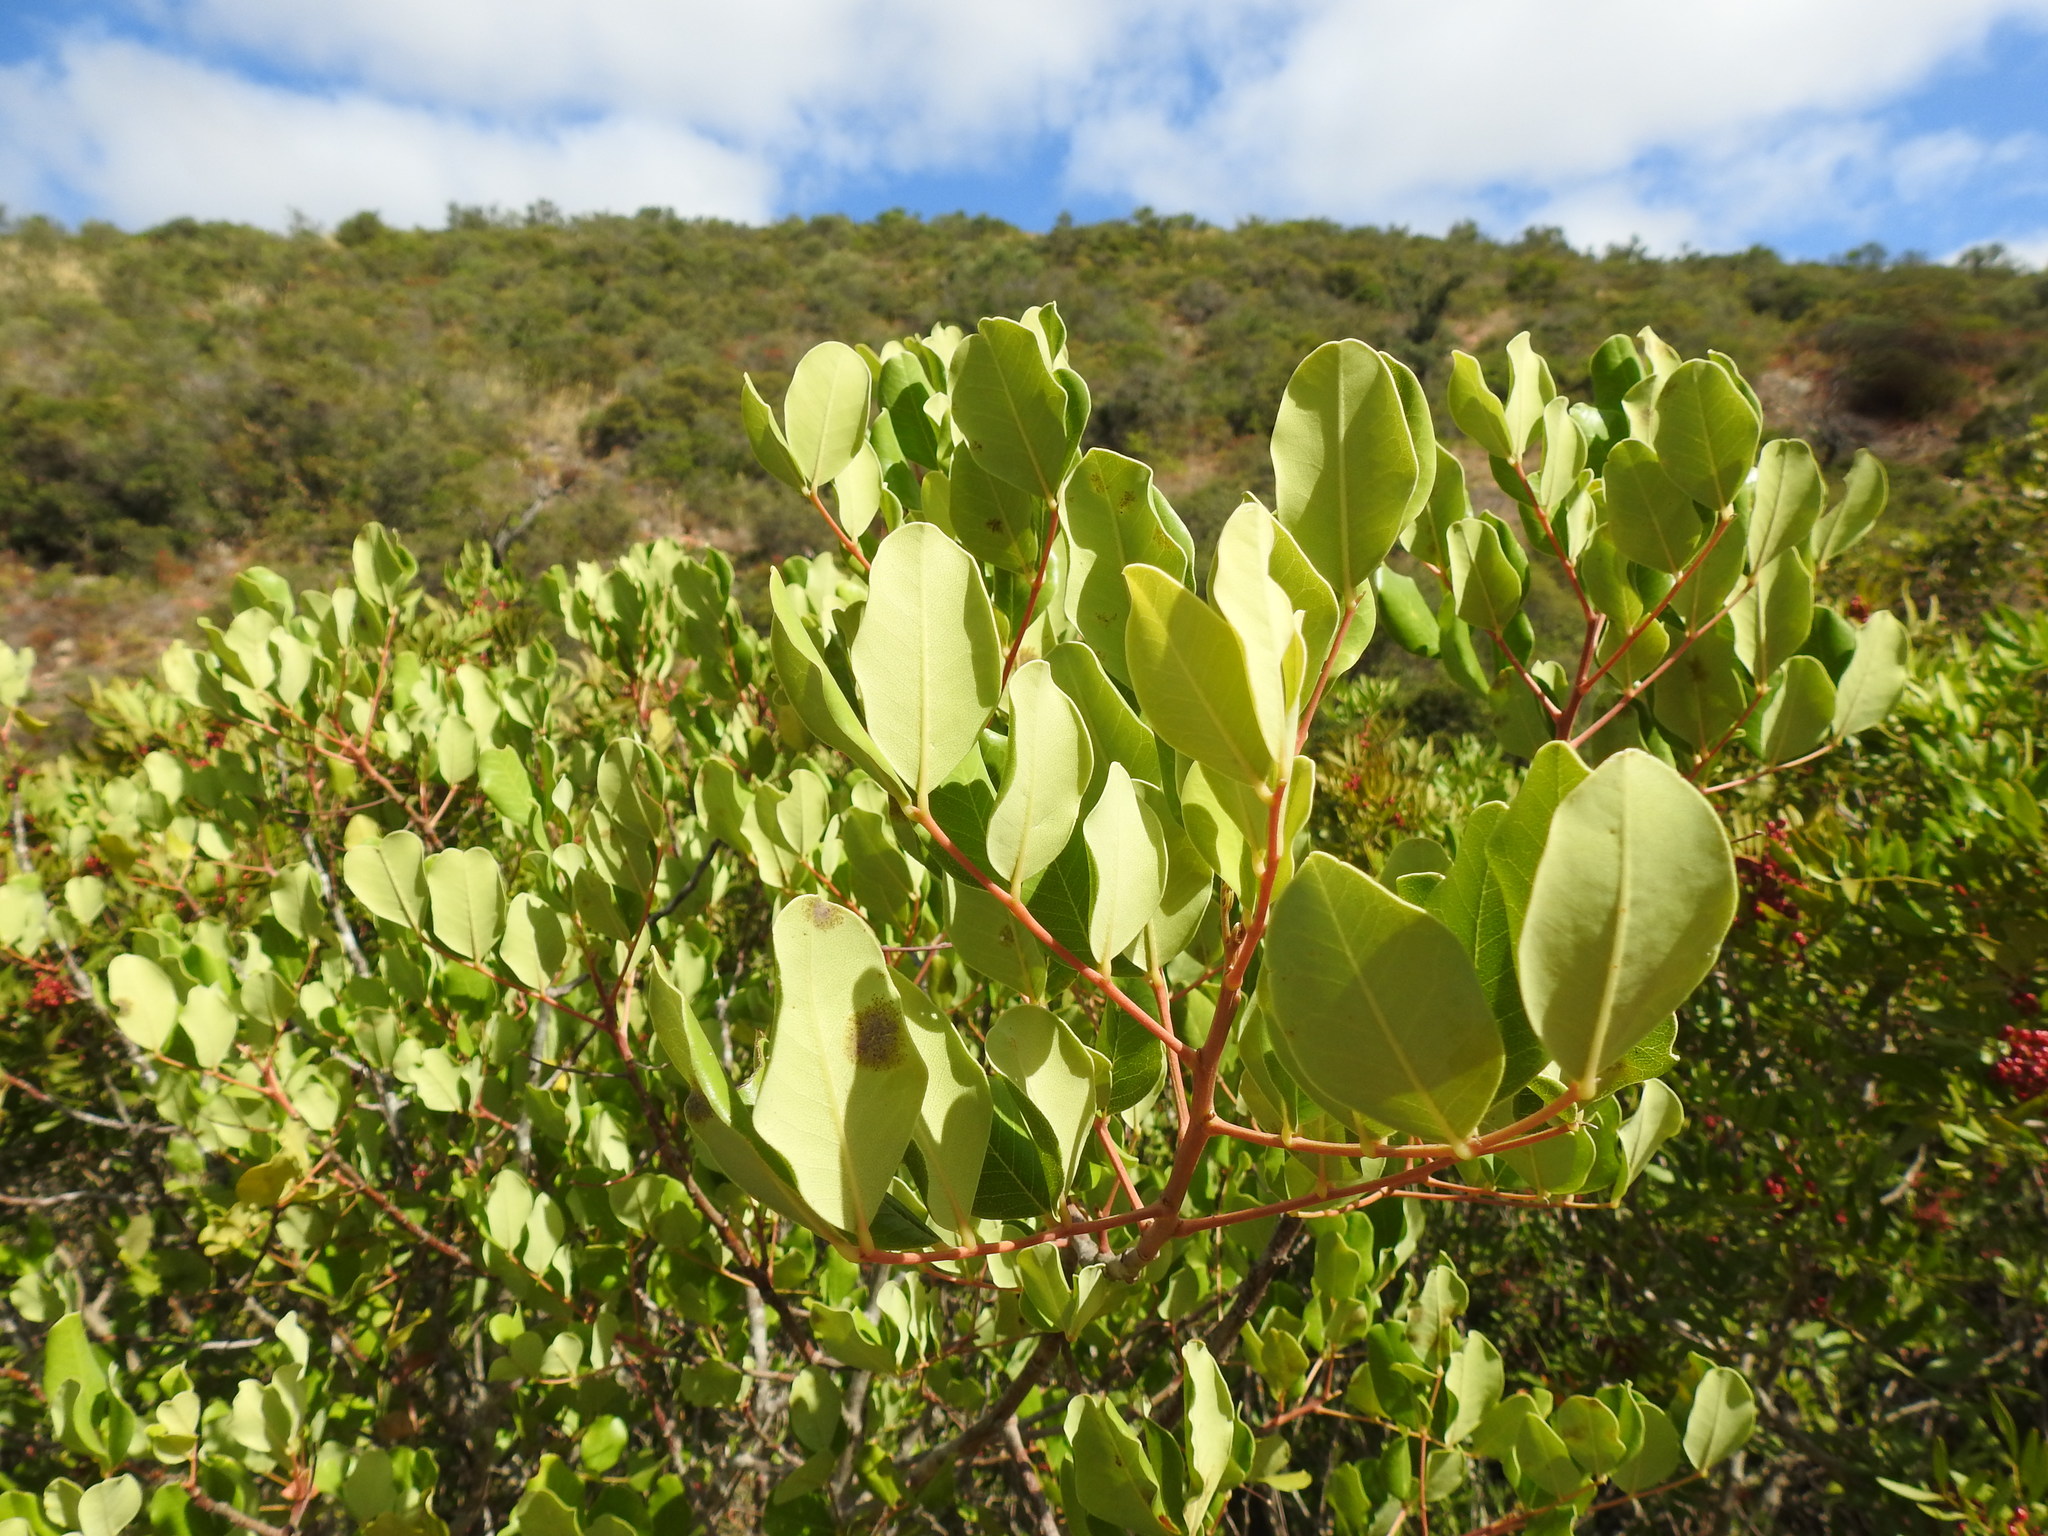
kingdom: Plantae
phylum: Tracheophyta
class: Magnoliopsida
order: Fabales
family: Fabaceae
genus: Ceratonia
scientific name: Ceratonia siliqua
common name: Carob
